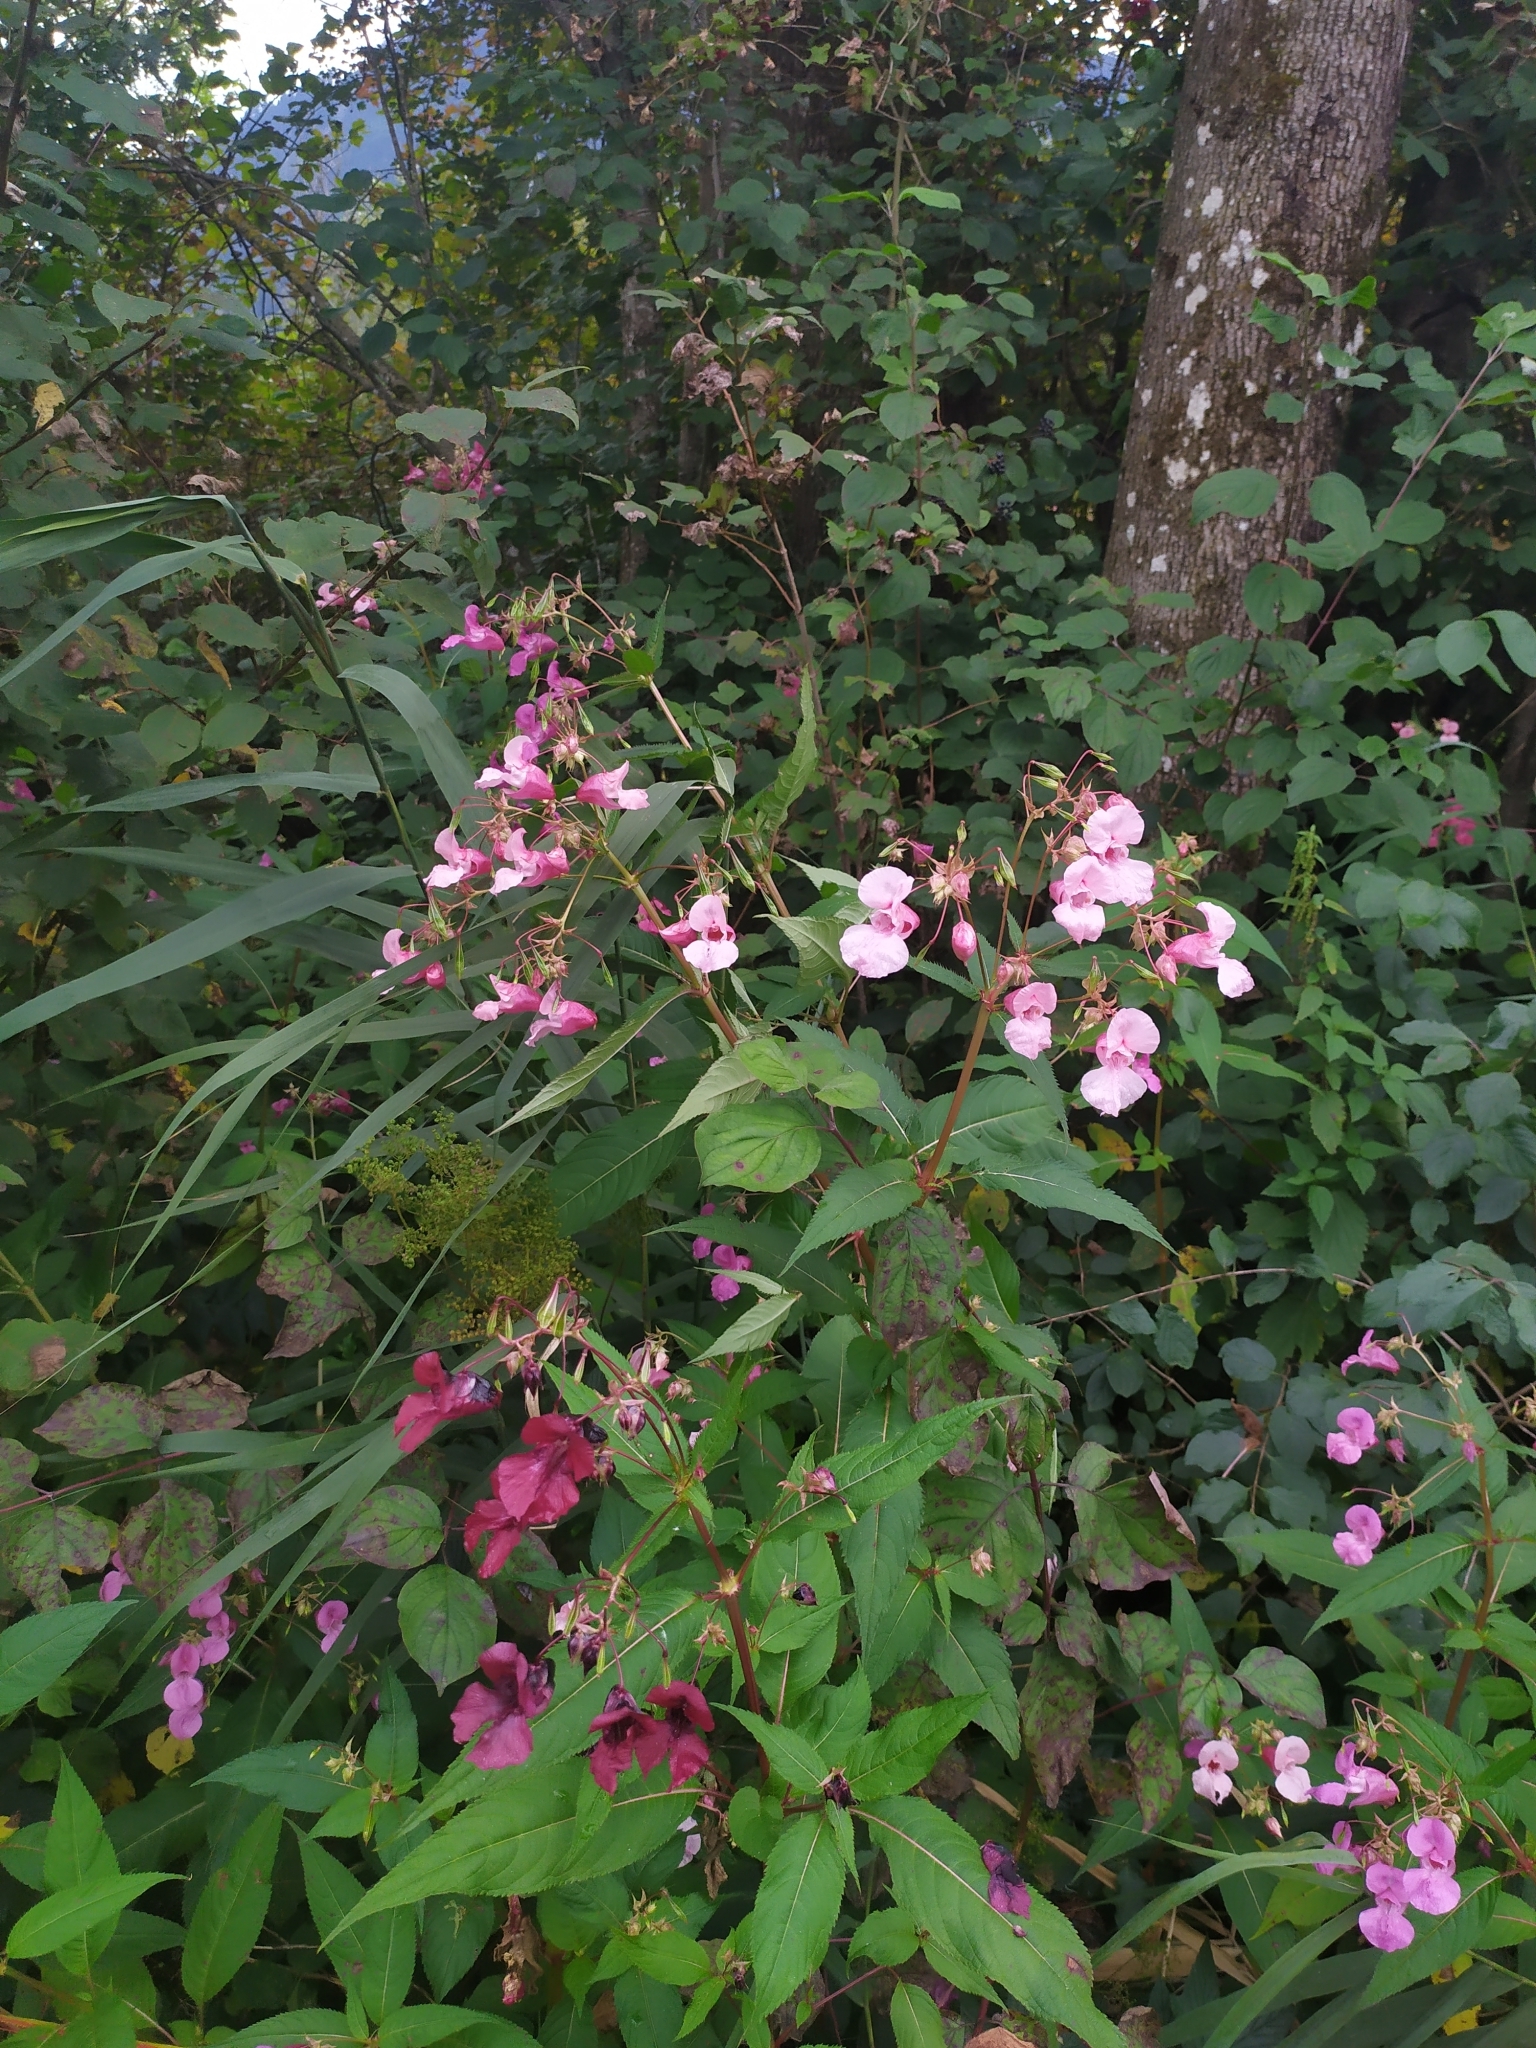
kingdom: Plantae
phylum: Tracheophyta
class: Magnoliopsida
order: Ericales
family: Balsaminaceae
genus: Impatiens
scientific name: Impatiens glandulifera
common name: Himalayan balsam
